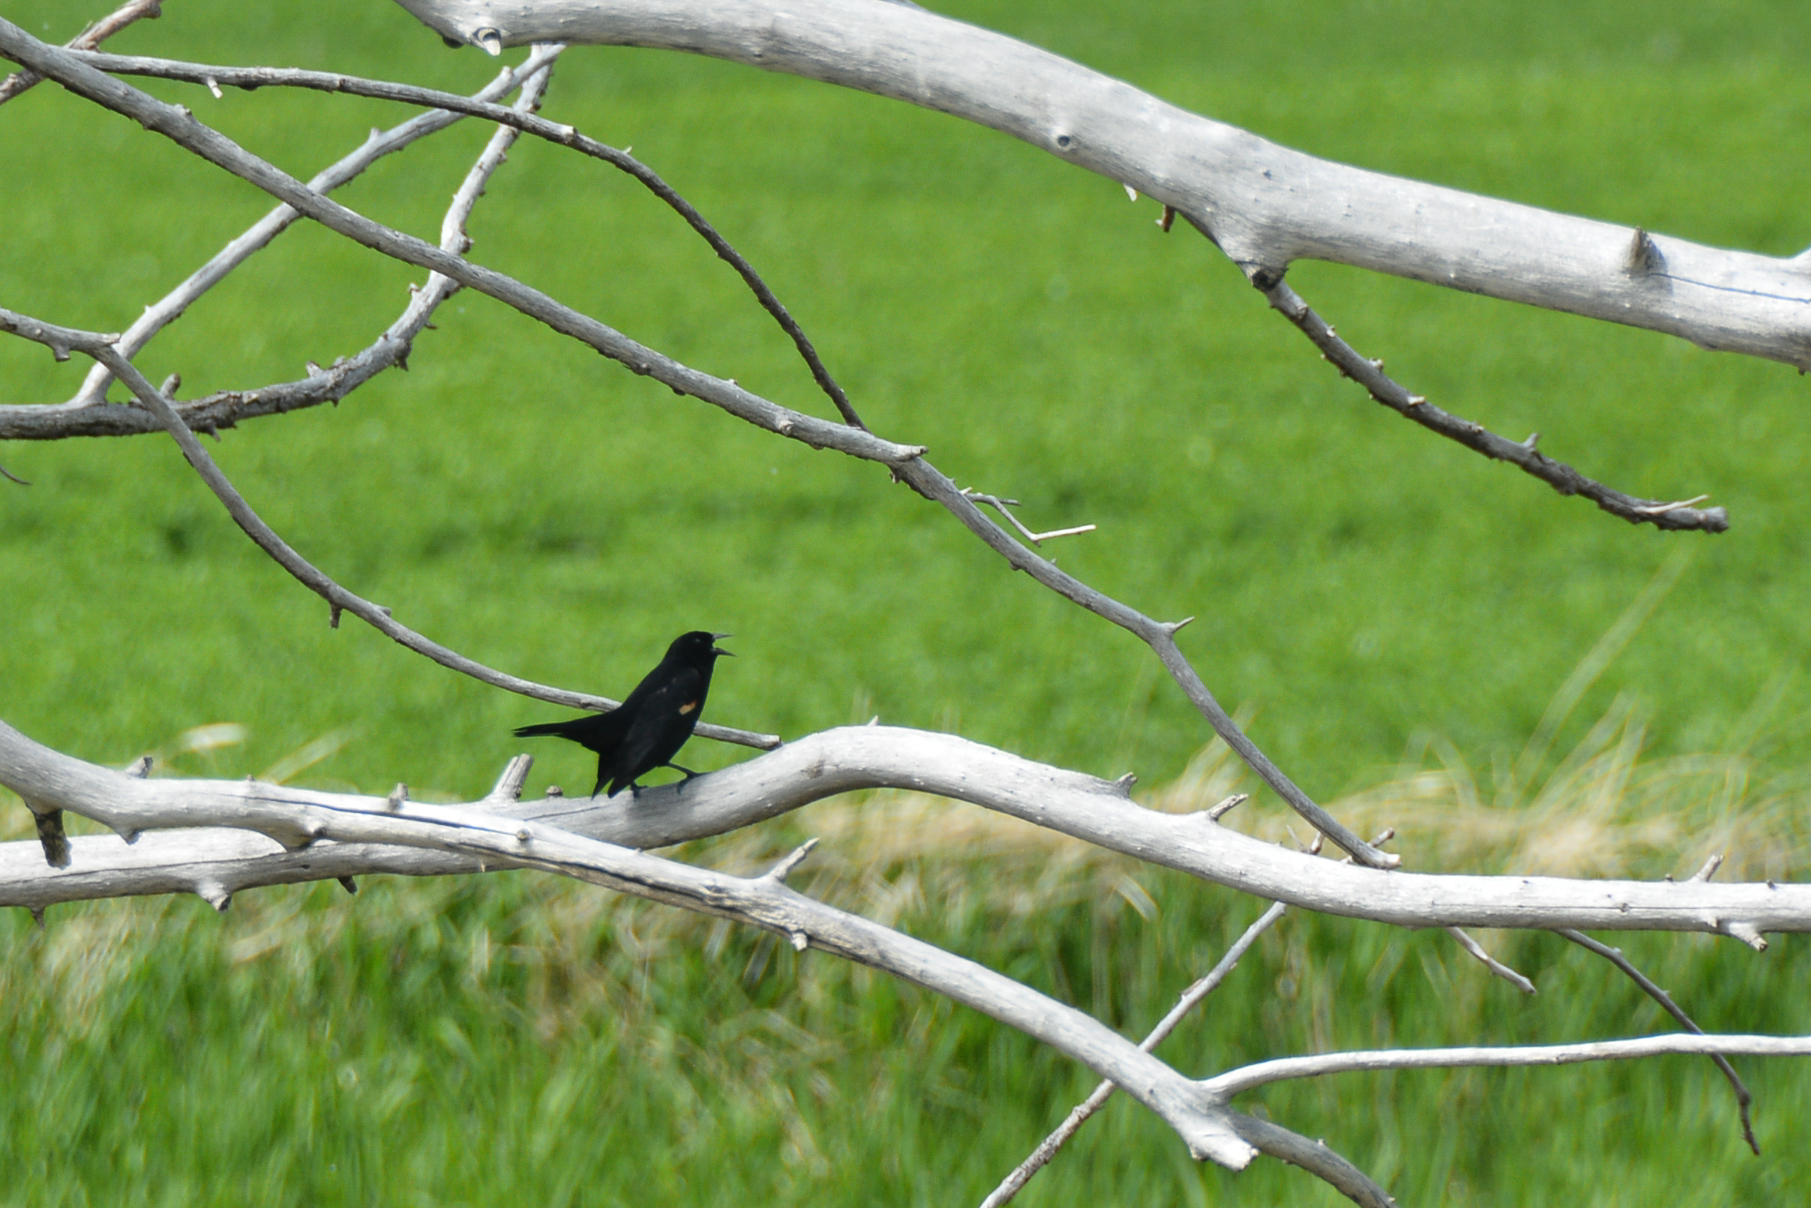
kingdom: Animalia
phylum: Chordata
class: Aves
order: Passeriformes
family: Icteridae
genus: Agelaius
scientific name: Agelaius phoeniceus
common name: Red-winged blackbird
